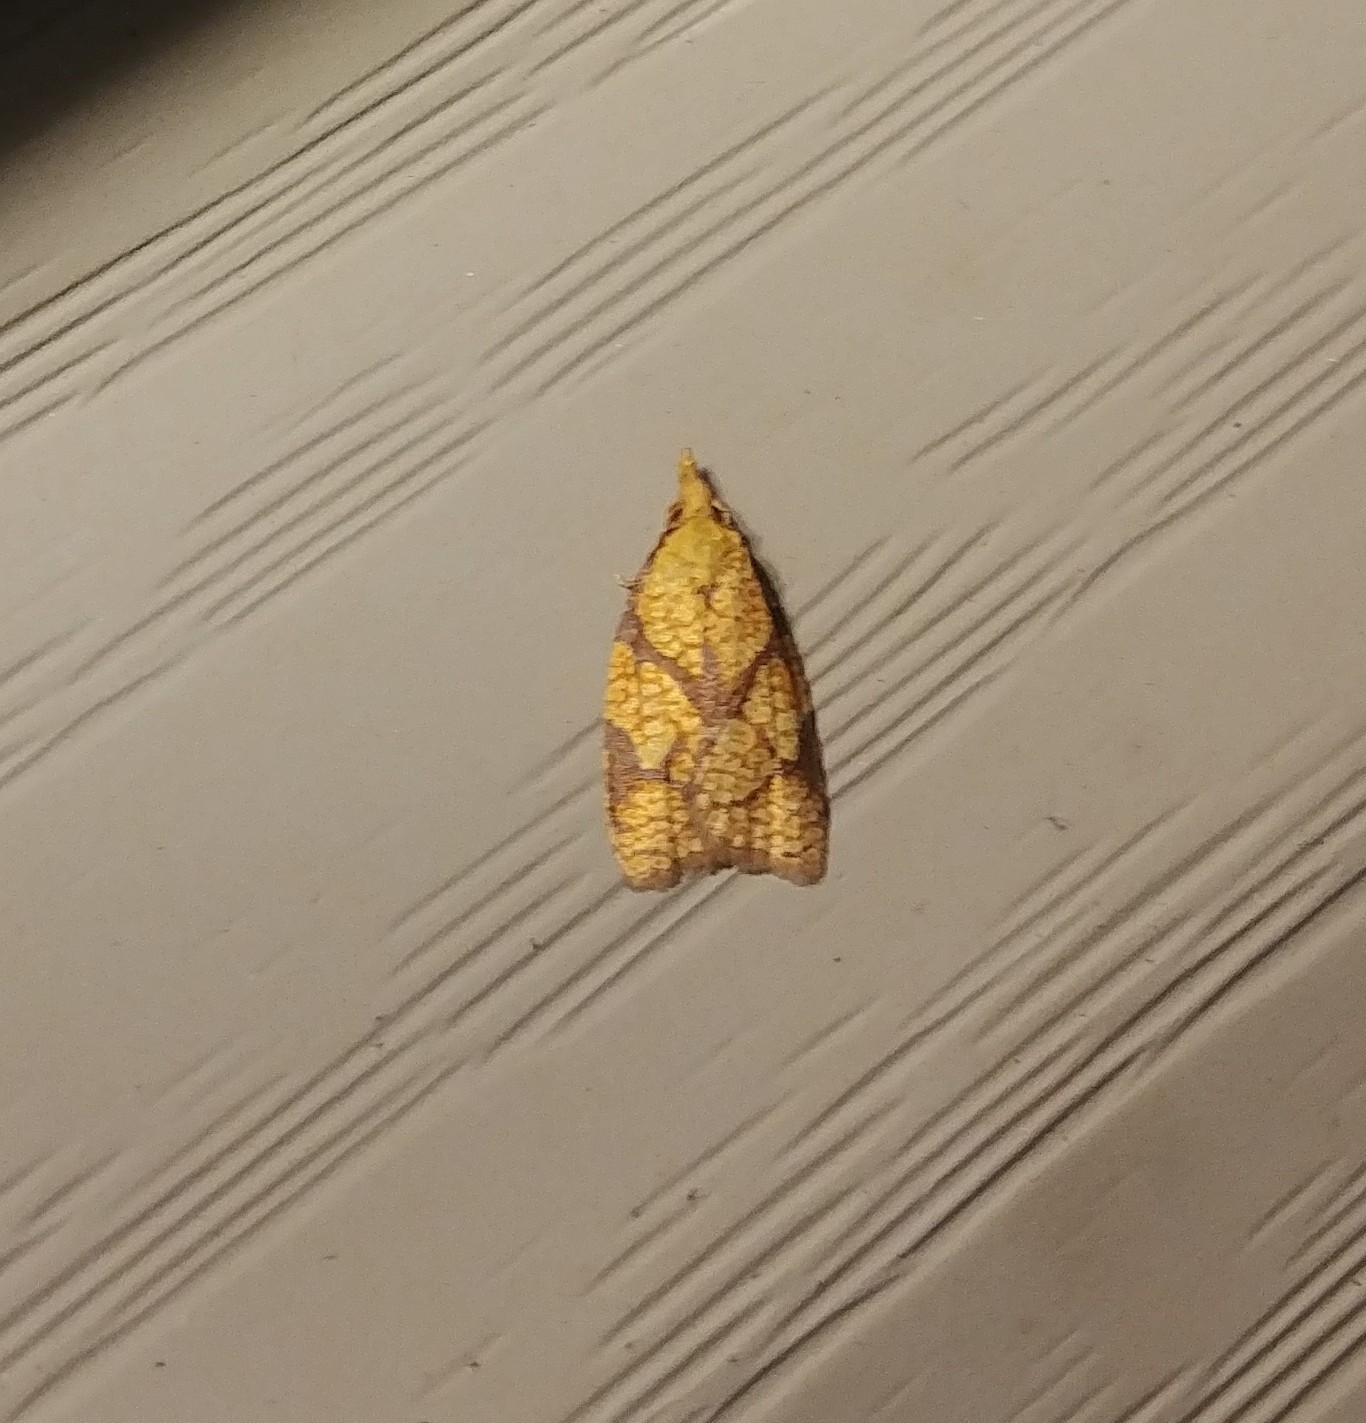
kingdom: Animalia
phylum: Arthropoda
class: Insecta
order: Lepidoptera
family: Tortricidae
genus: Cenopis
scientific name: Cenopis reticulatana
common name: Reticulated fruitworm moth
